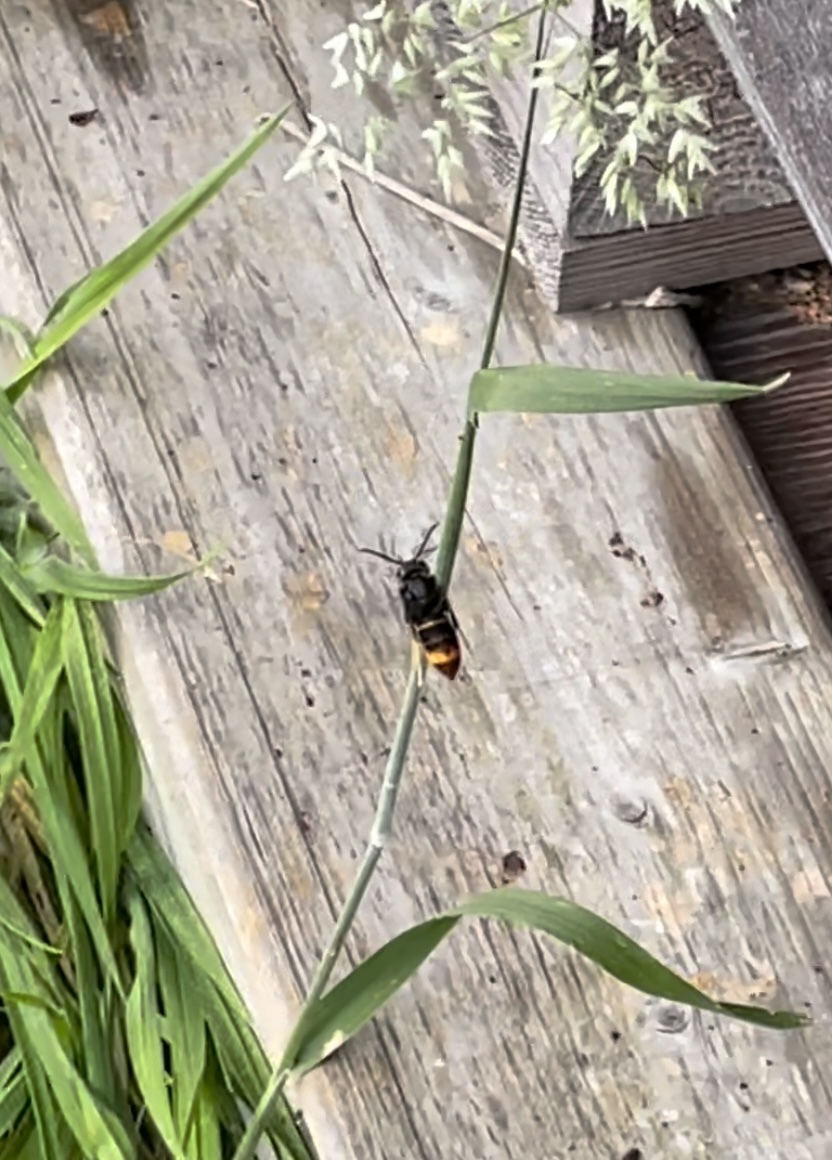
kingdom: Animalia
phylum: Arthropoda
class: Insecta
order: Hymenoptera
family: Vespidae
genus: Vespa
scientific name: Vespa velutina
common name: Asian hornet
